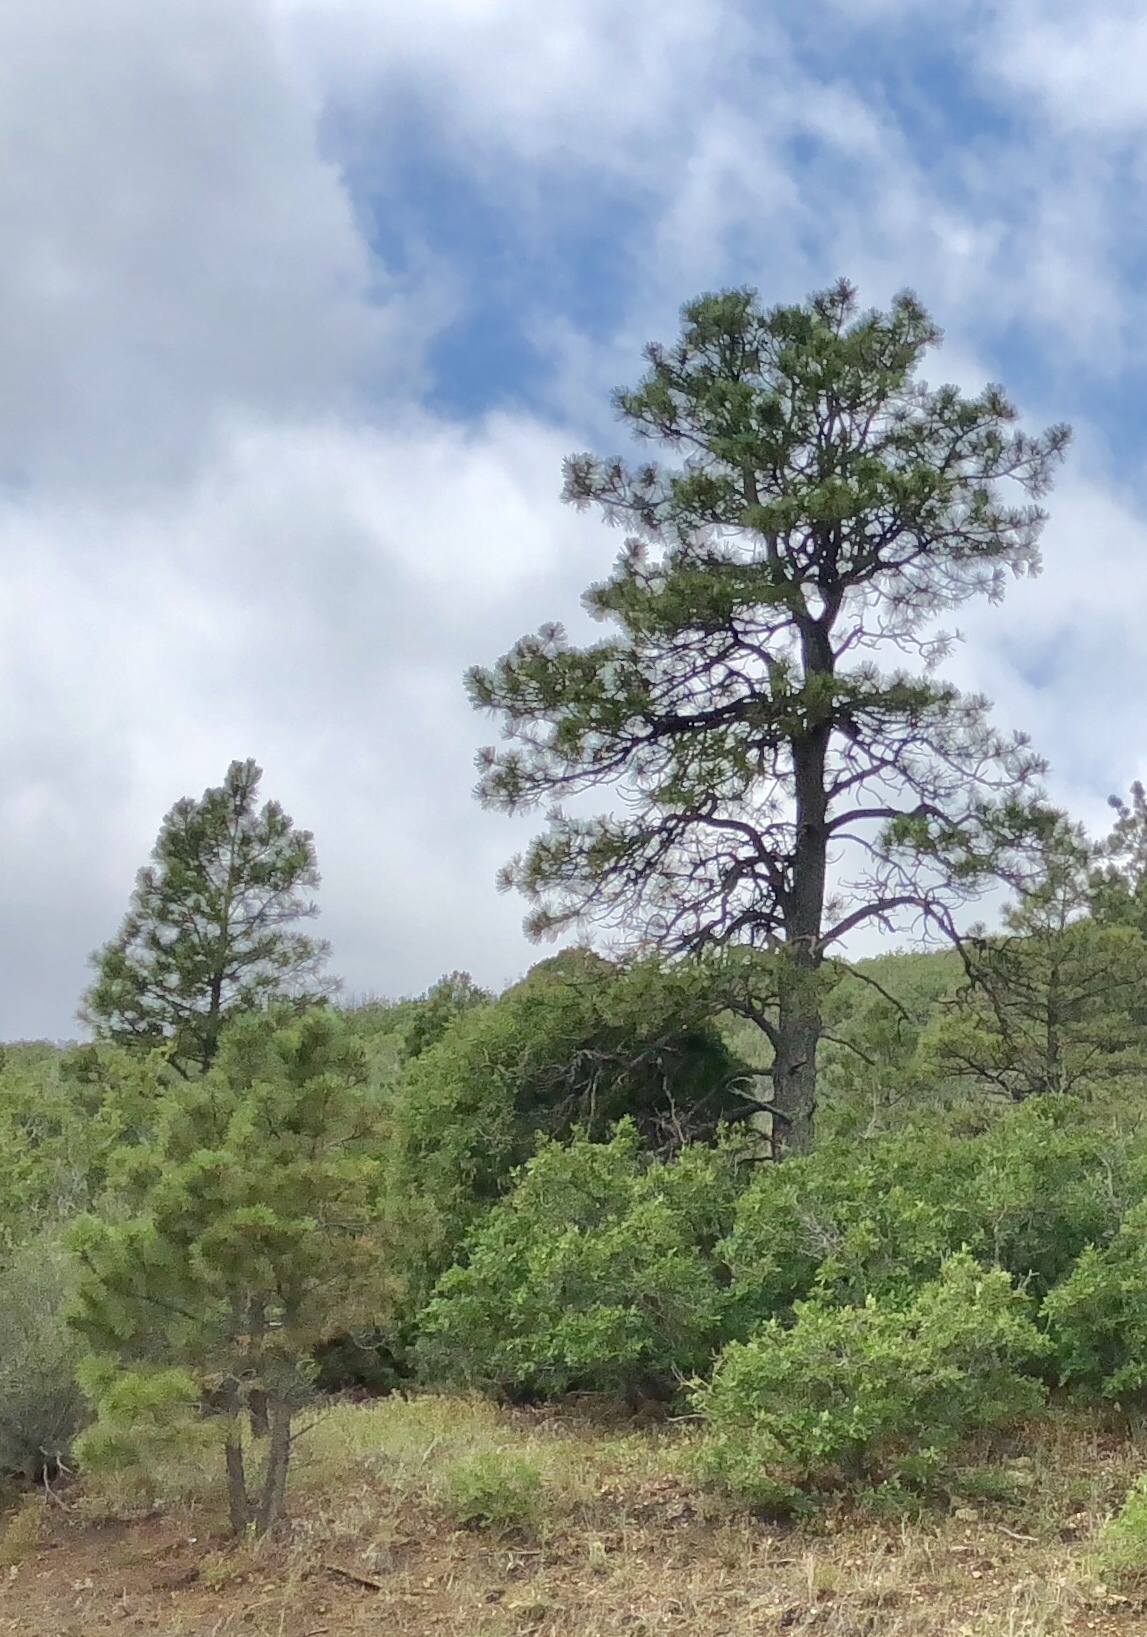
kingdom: Plantae
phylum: Tracheophyta
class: Pinopsida
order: Pinales
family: Pinaceae
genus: Pinus
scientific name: Pinus ponderosa
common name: Western yellow-pine
